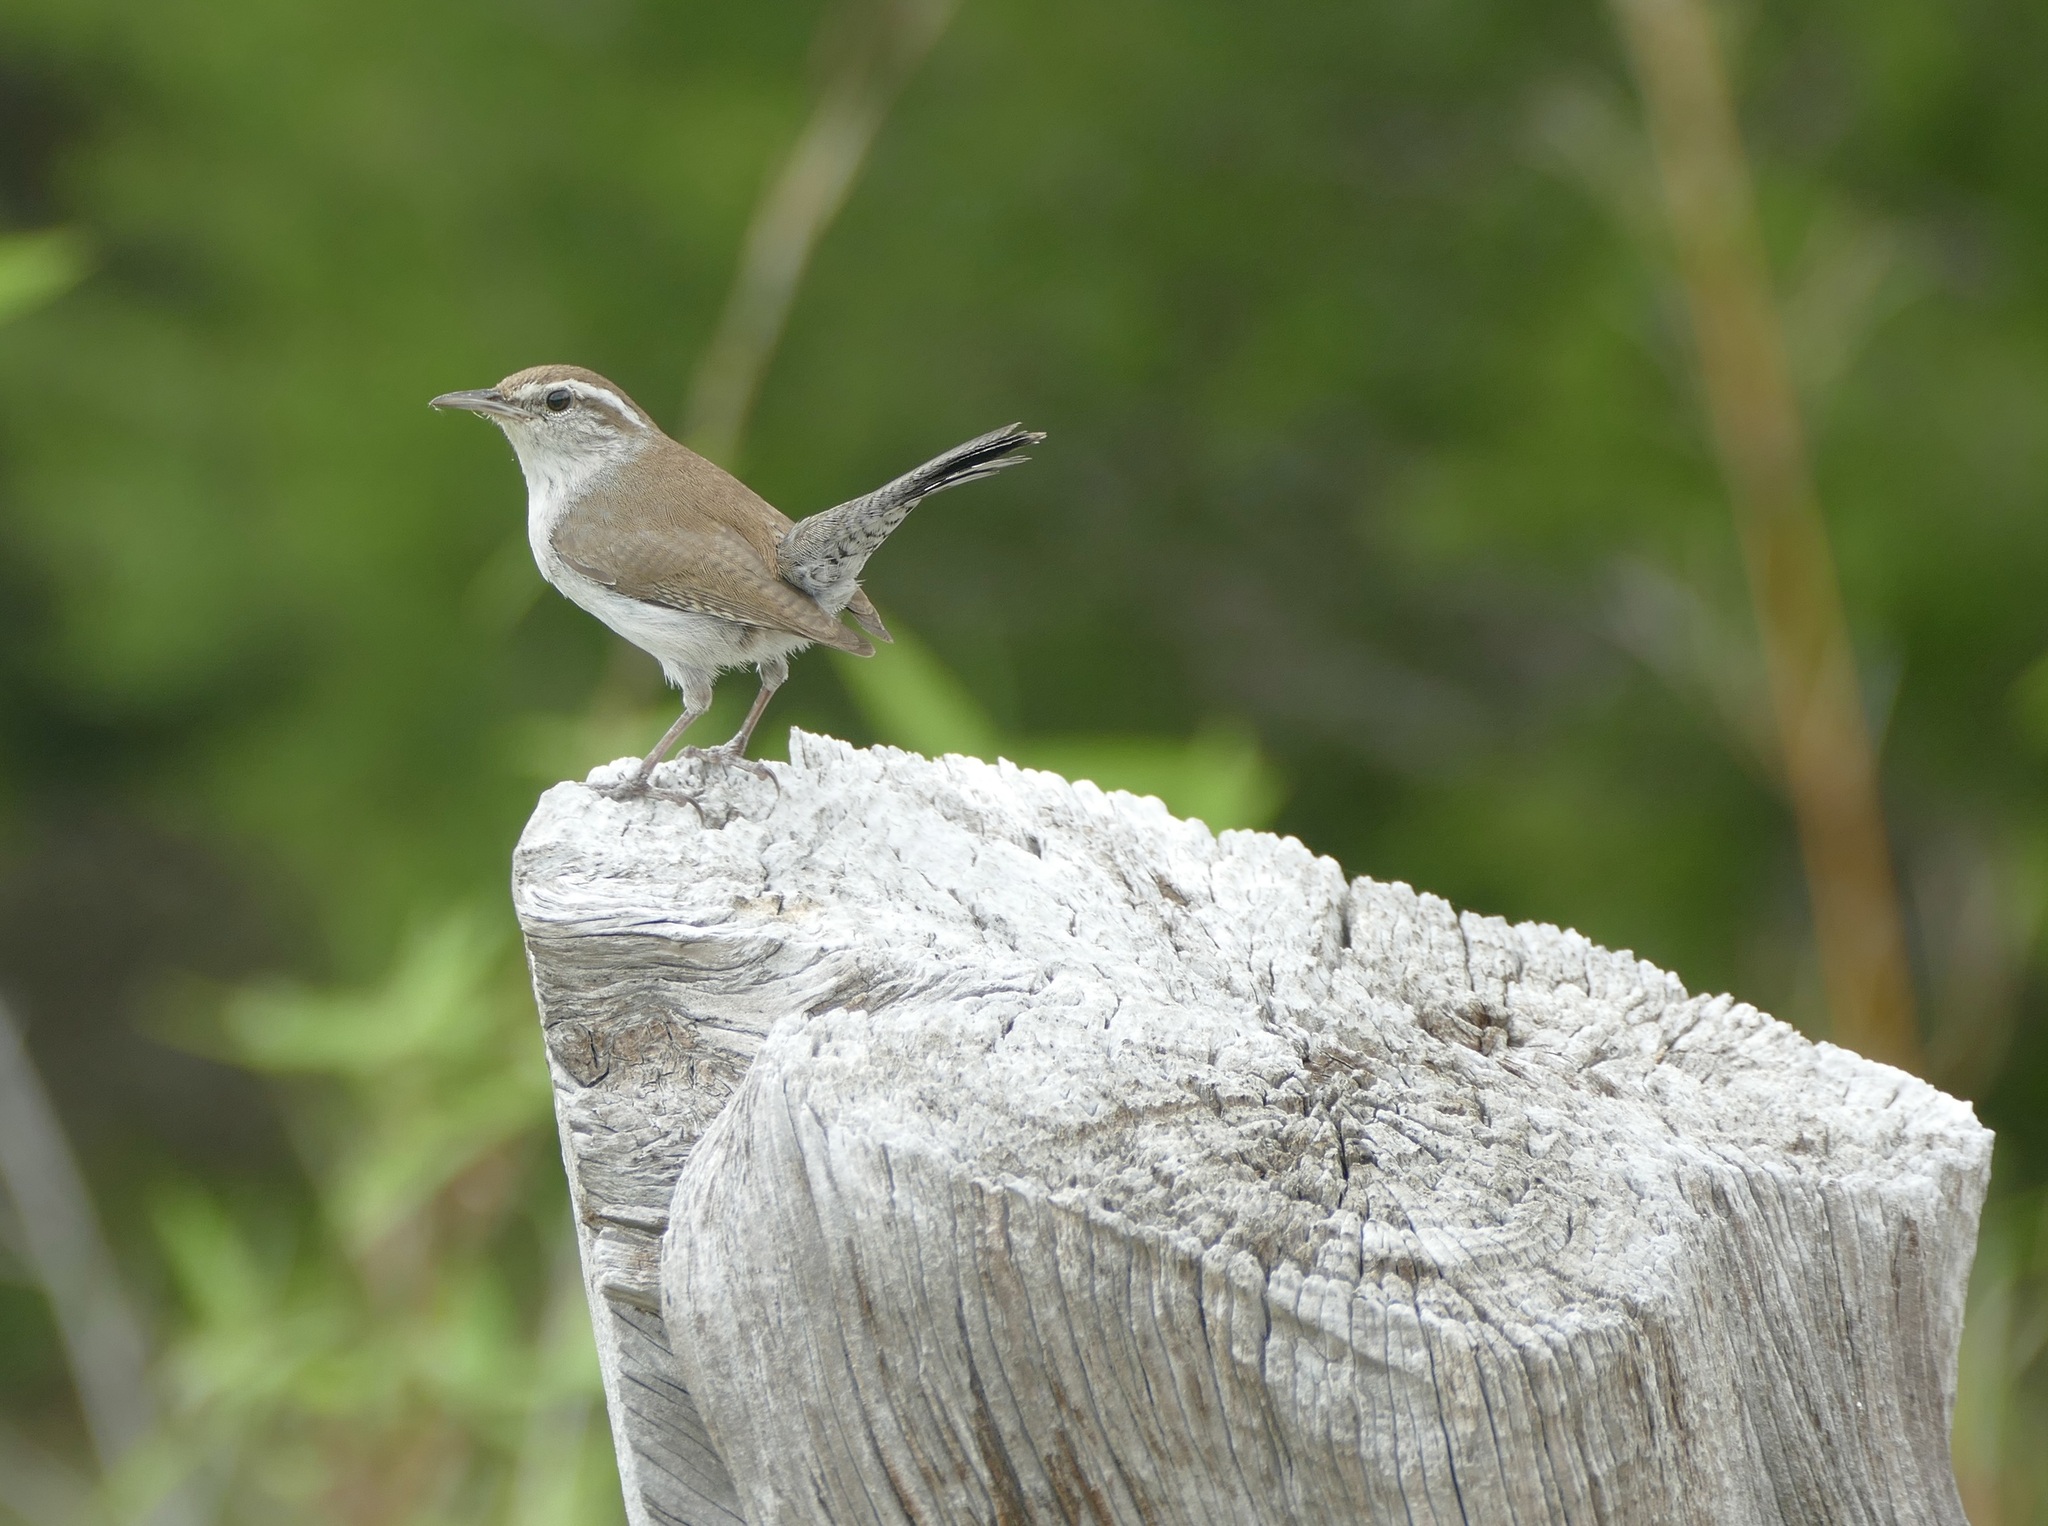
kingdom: Animalia
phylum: Chordata
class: Aves
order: Passeriformes
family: Troglodytidae
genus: Thryomanes
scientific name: Thryomanes bewickii
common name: Bewick's wren
